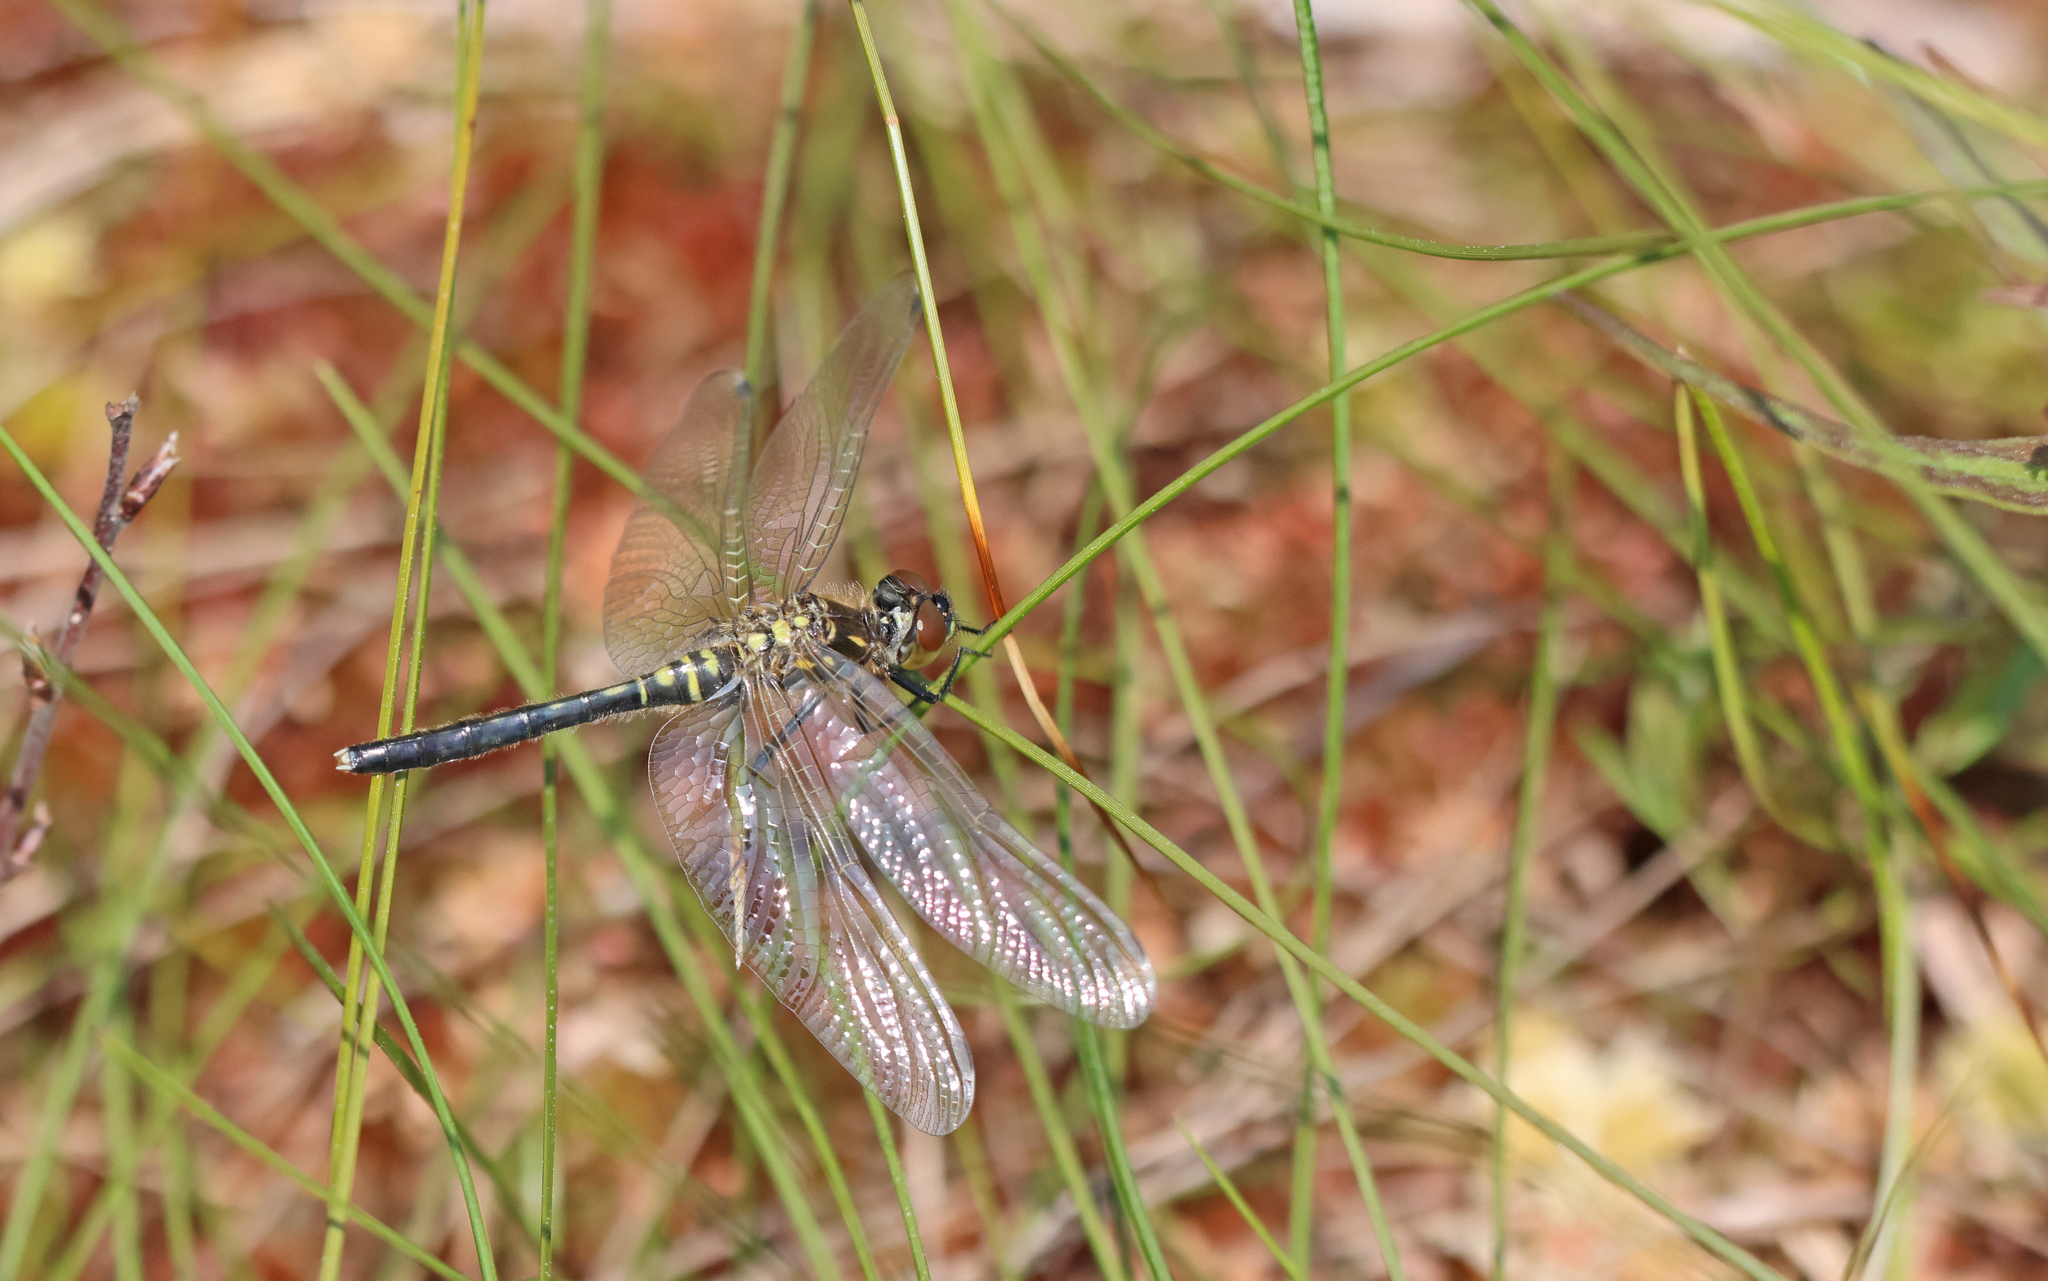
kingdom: Animalia
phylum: Arthropoda
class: Insecta
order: Odonata
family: Libellulidae
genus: Leucorrhinia
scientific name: Leucorrhinia albifrons
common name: Dark whiteface
